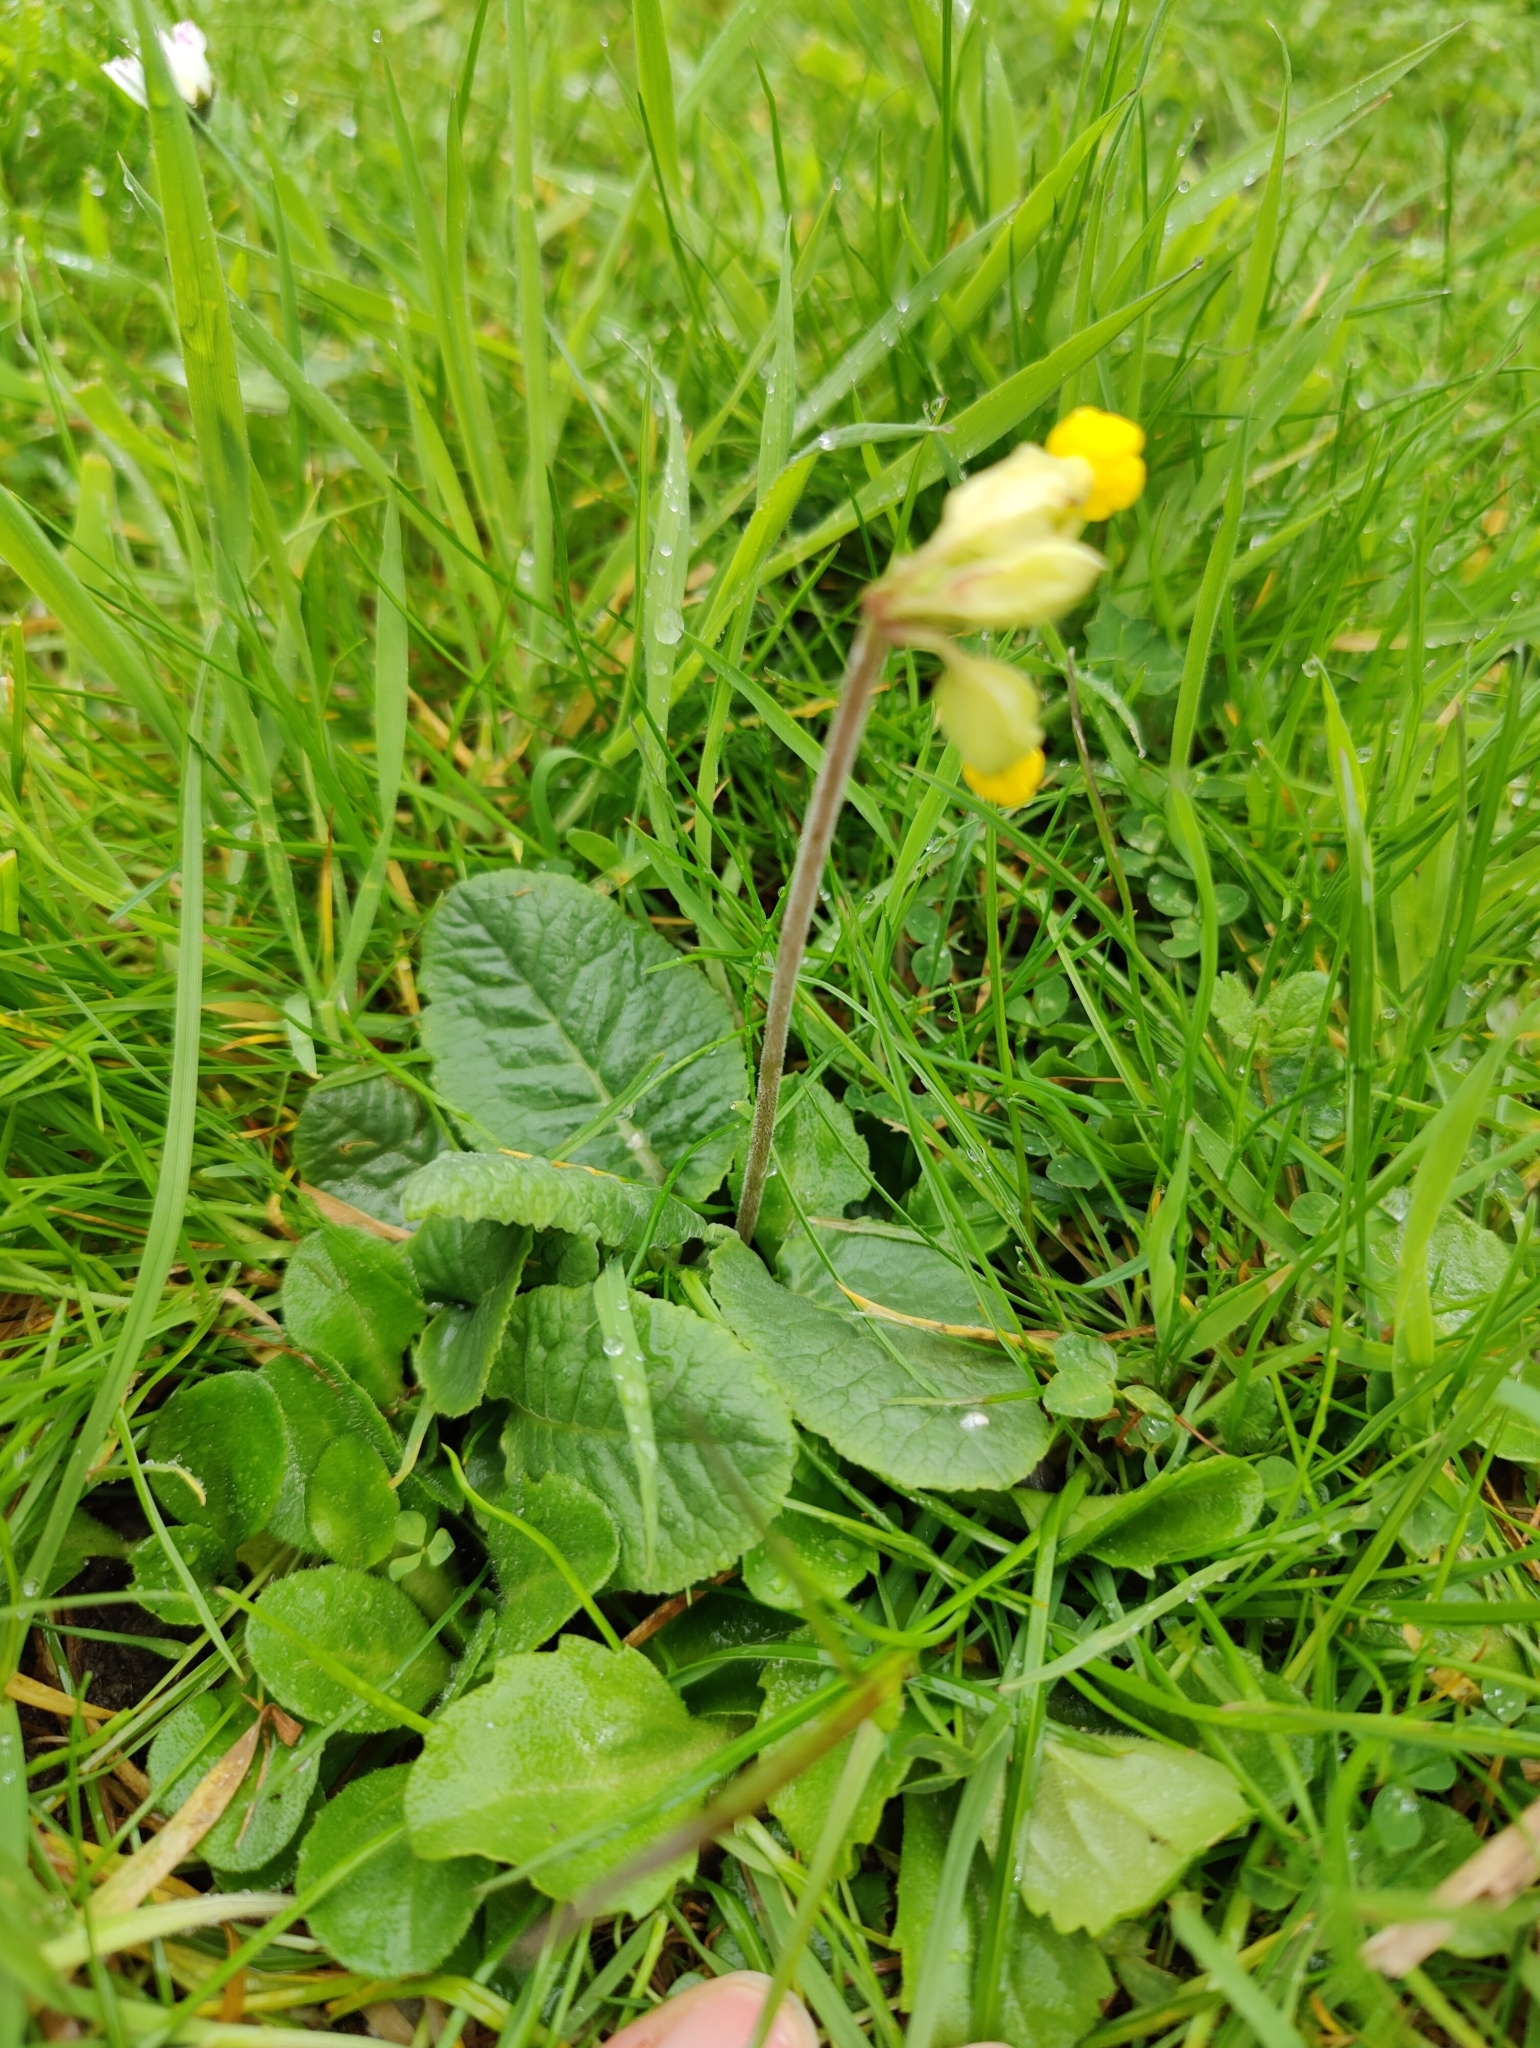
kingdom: Plantae
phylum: Tracheophyta
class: Magnoliopsida
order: Ericales
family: Primulaceae
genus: Primula
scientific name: Primula veris
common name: Cowslip
